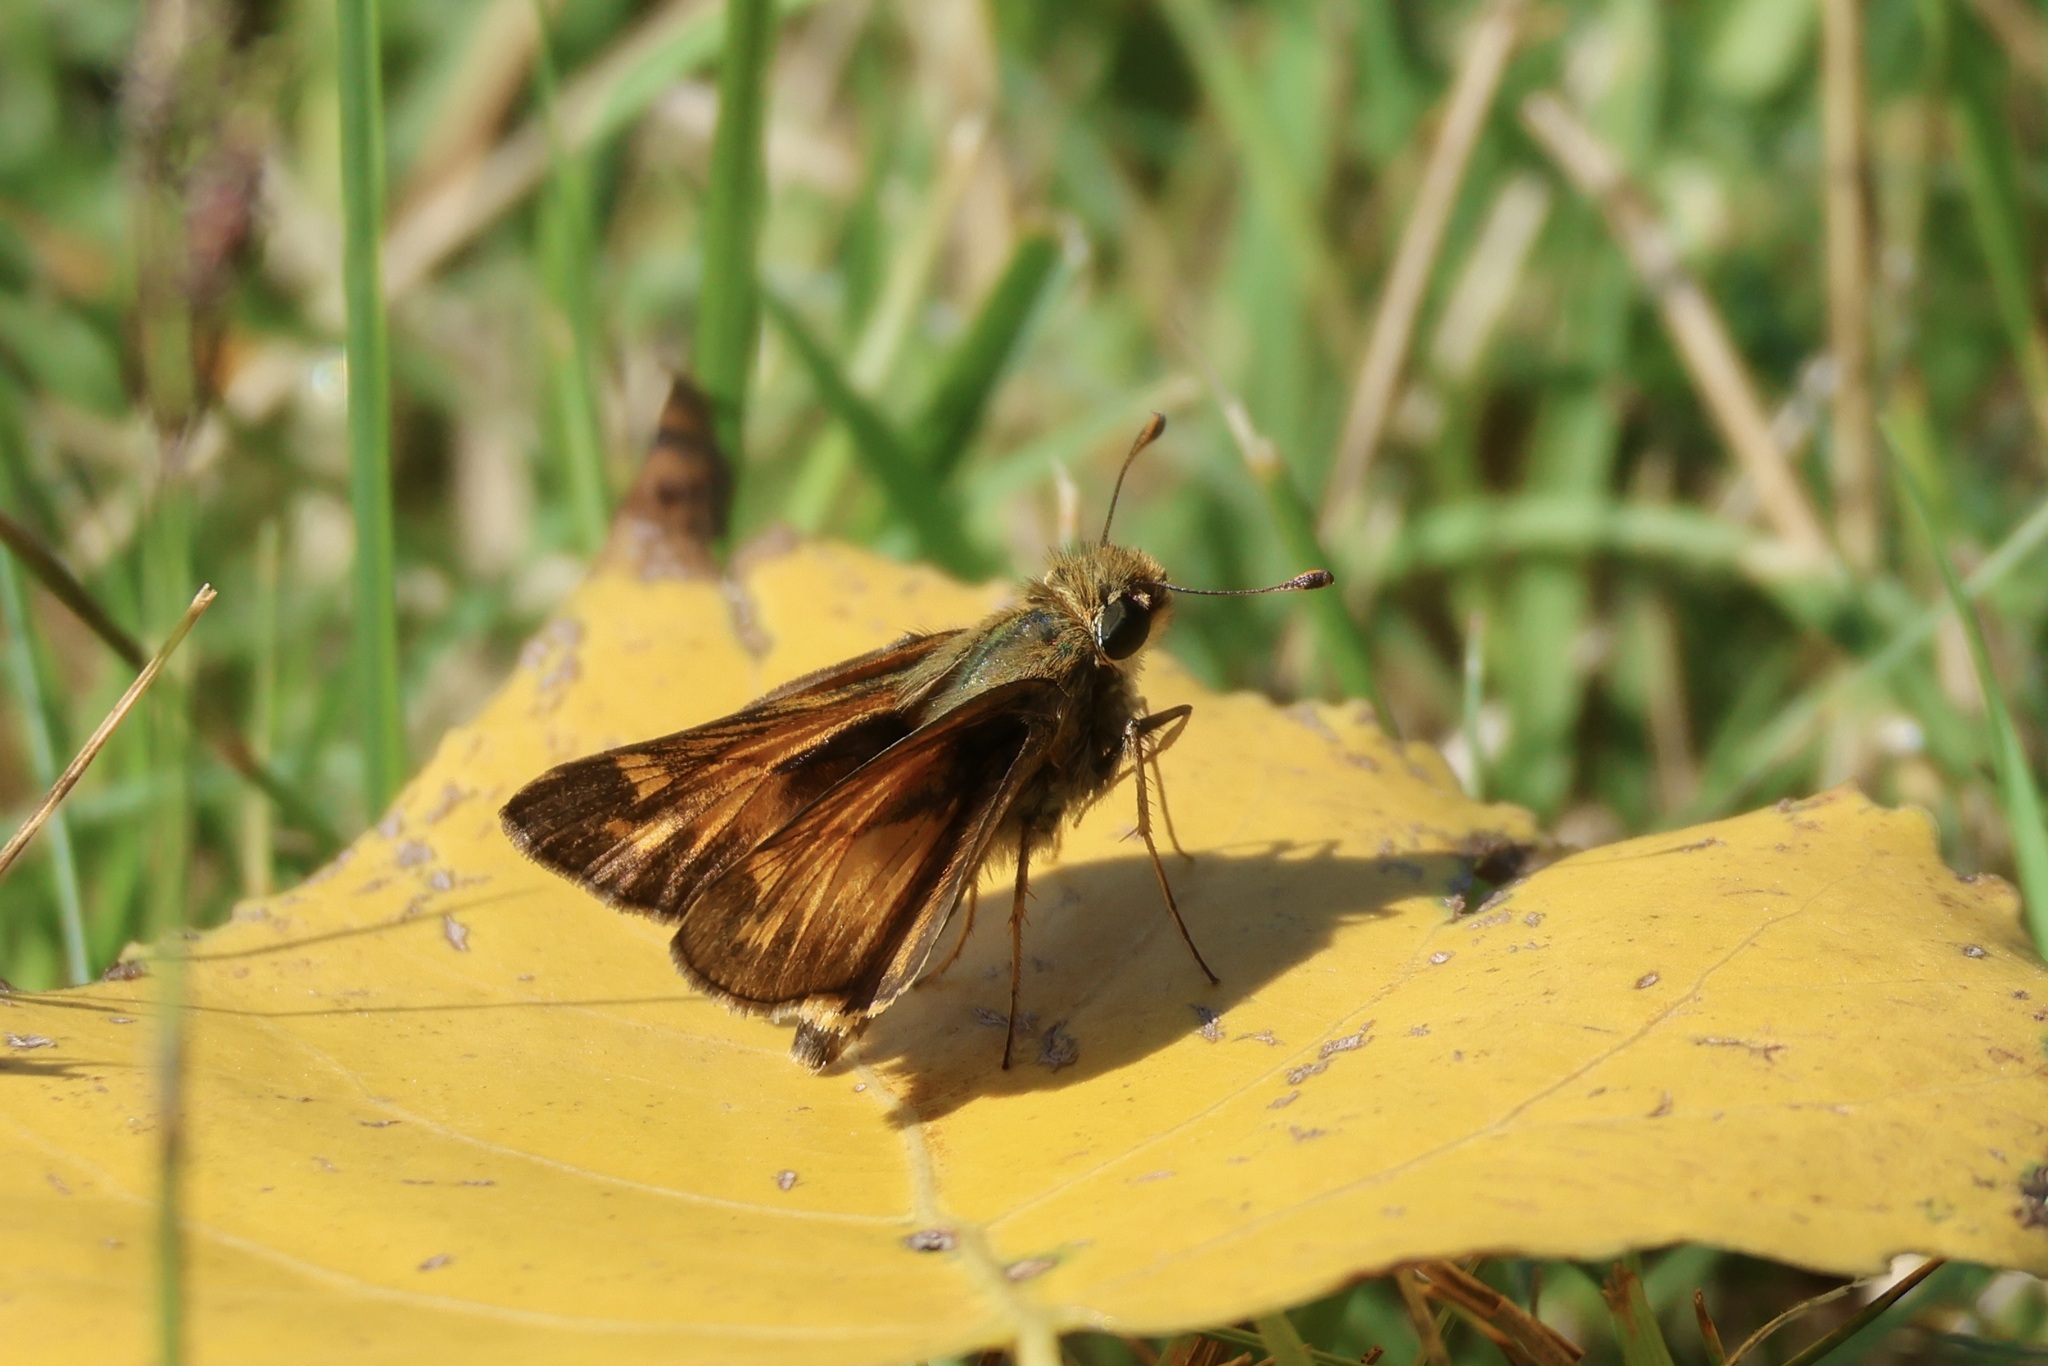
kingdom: Animalia
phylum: Arthropoda
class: Insecta
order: Lepidoptera
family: Hesperiidae
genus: Atalopedes
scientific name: Atalopedes
